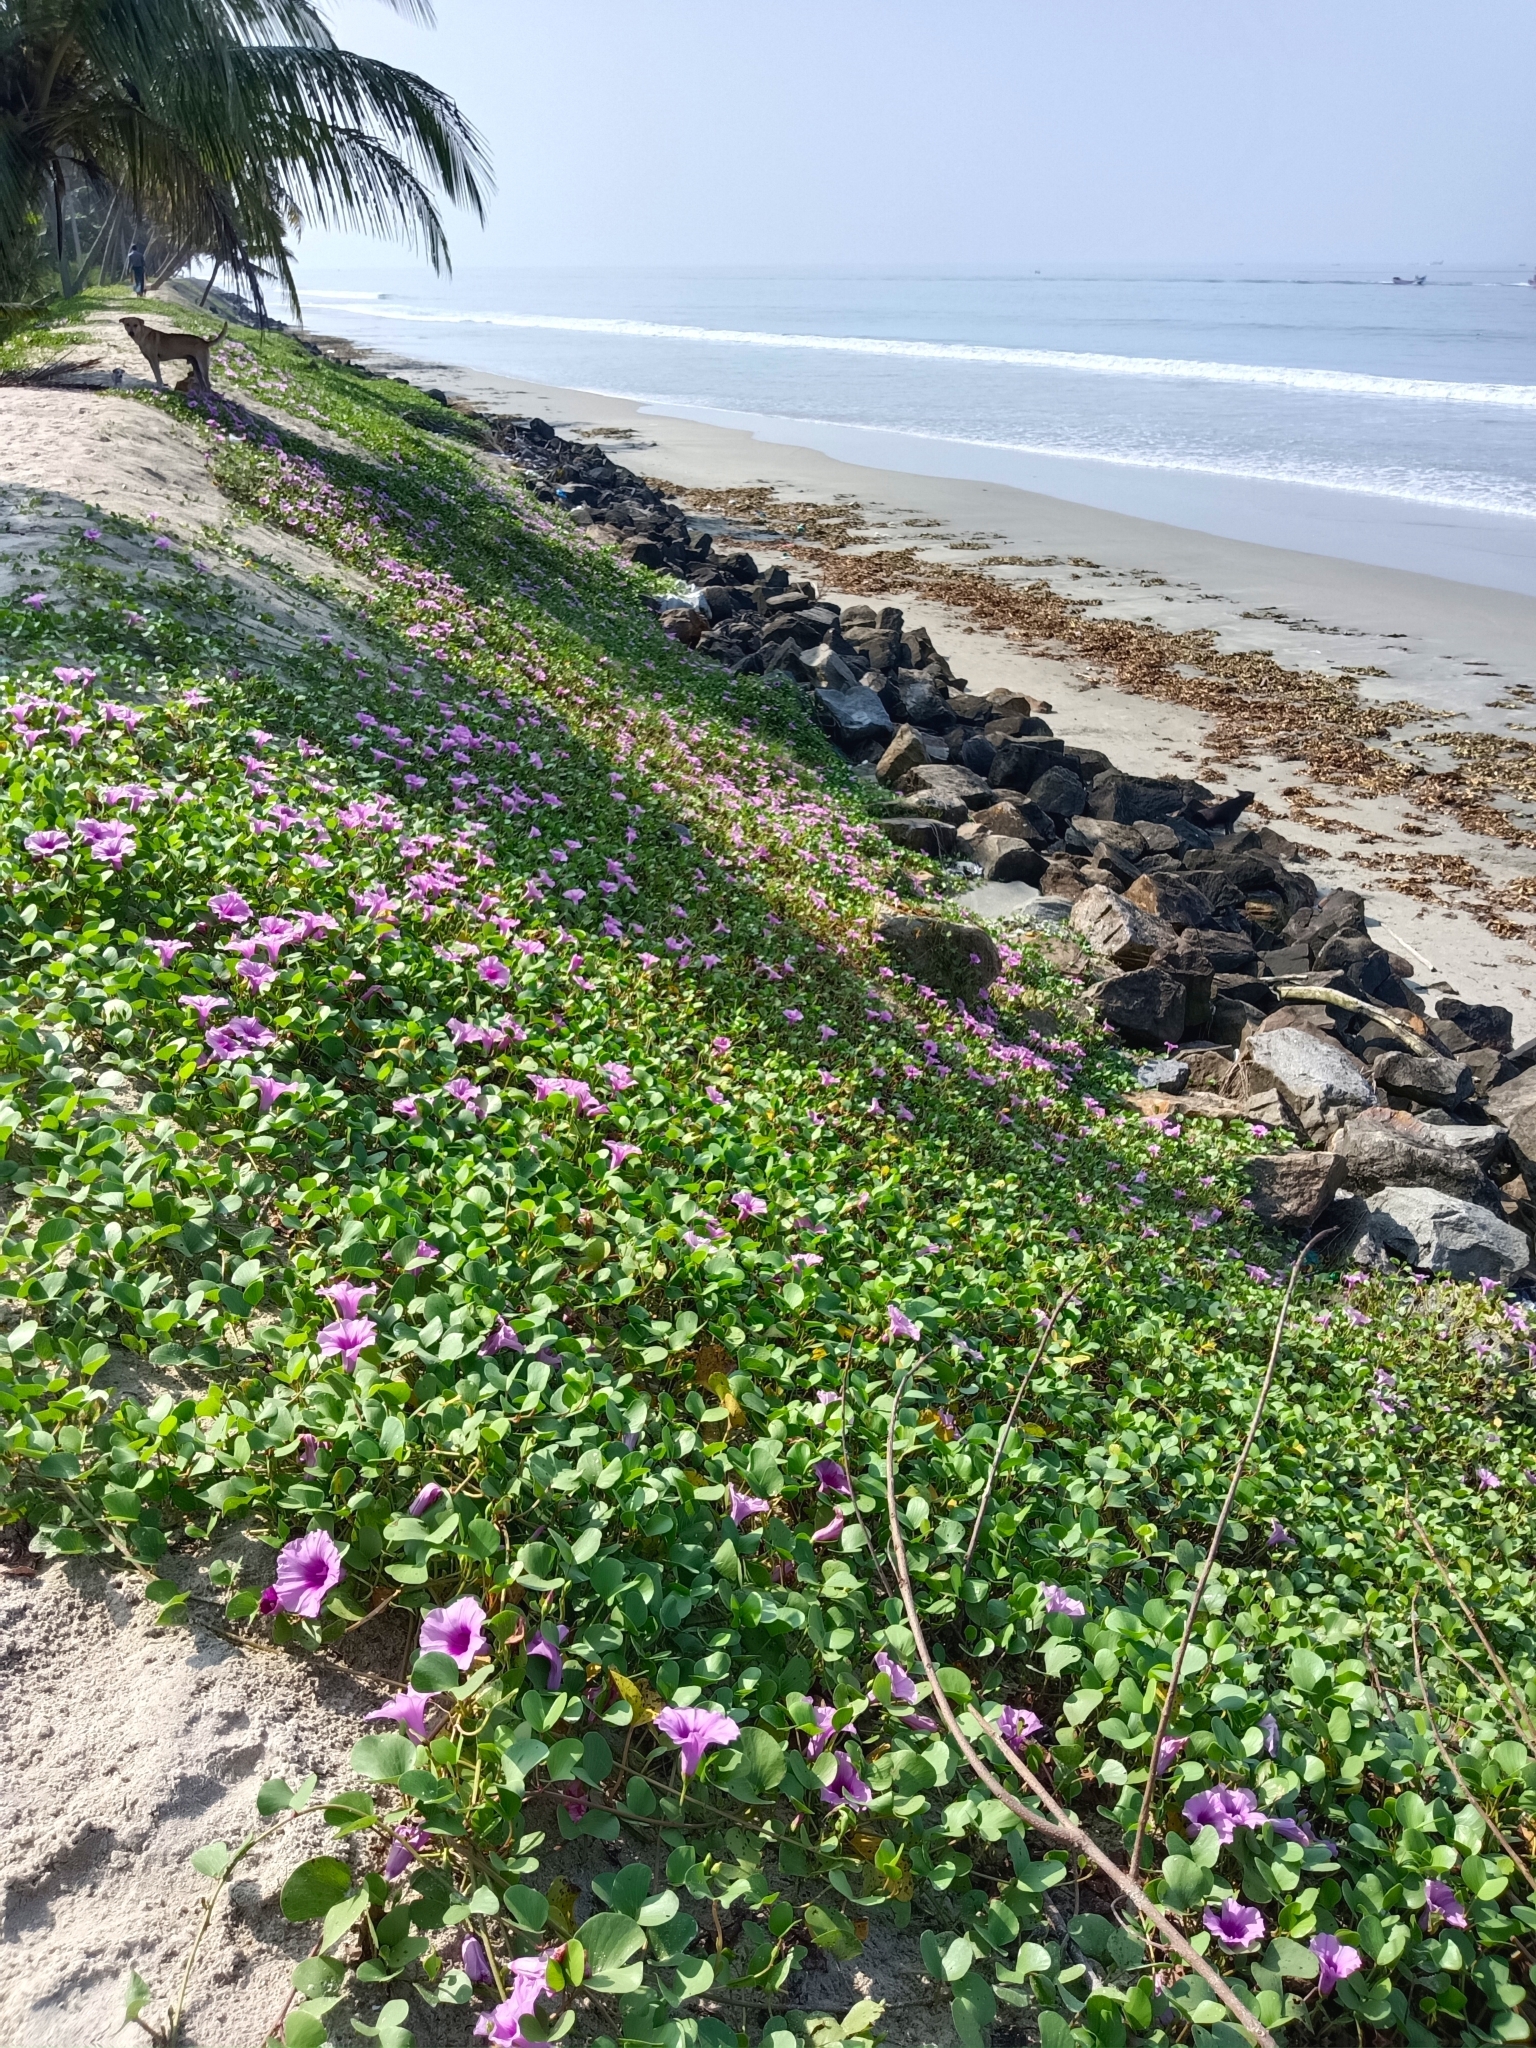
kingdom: Plantae
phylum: Tracheophyta
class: Magnoliopsida
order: Solanales
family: Convolvulaceae
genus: Ipomoea
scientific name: Ipomoea pes-caprae
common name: Beach morning glory
